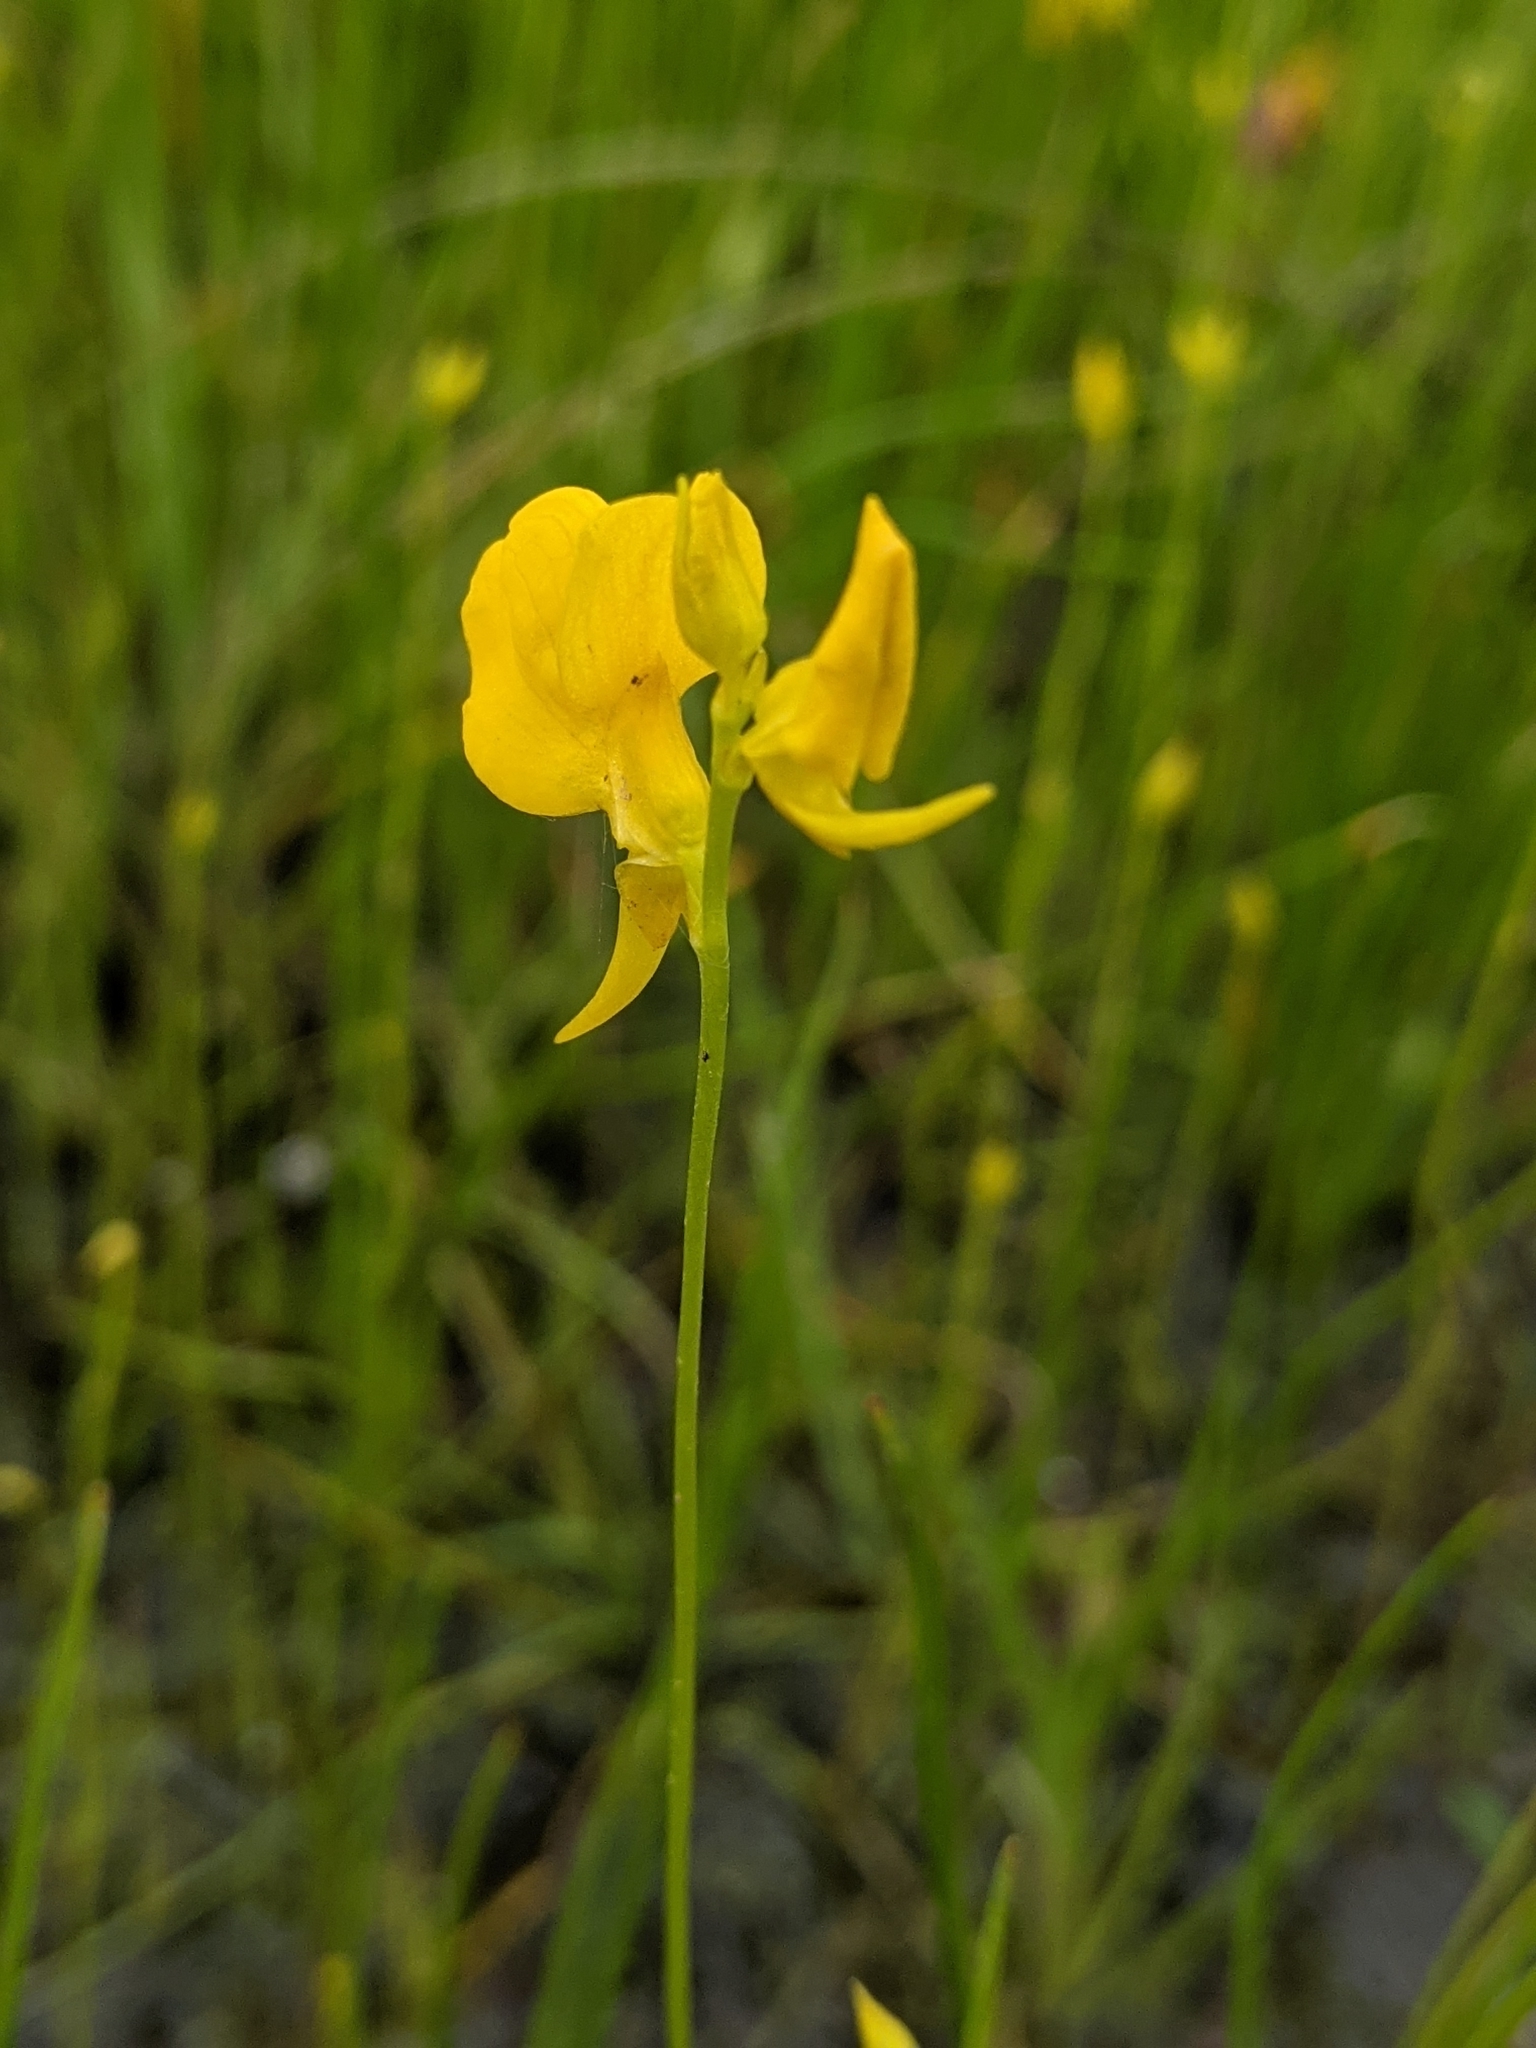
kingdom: Plantae
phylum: Tracheophyta
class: Magnoliopsida
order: Lamiales
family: Lentibulariaceae
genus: Utricularia
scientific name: Utricularia cornuta
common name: Horned bladderwort
